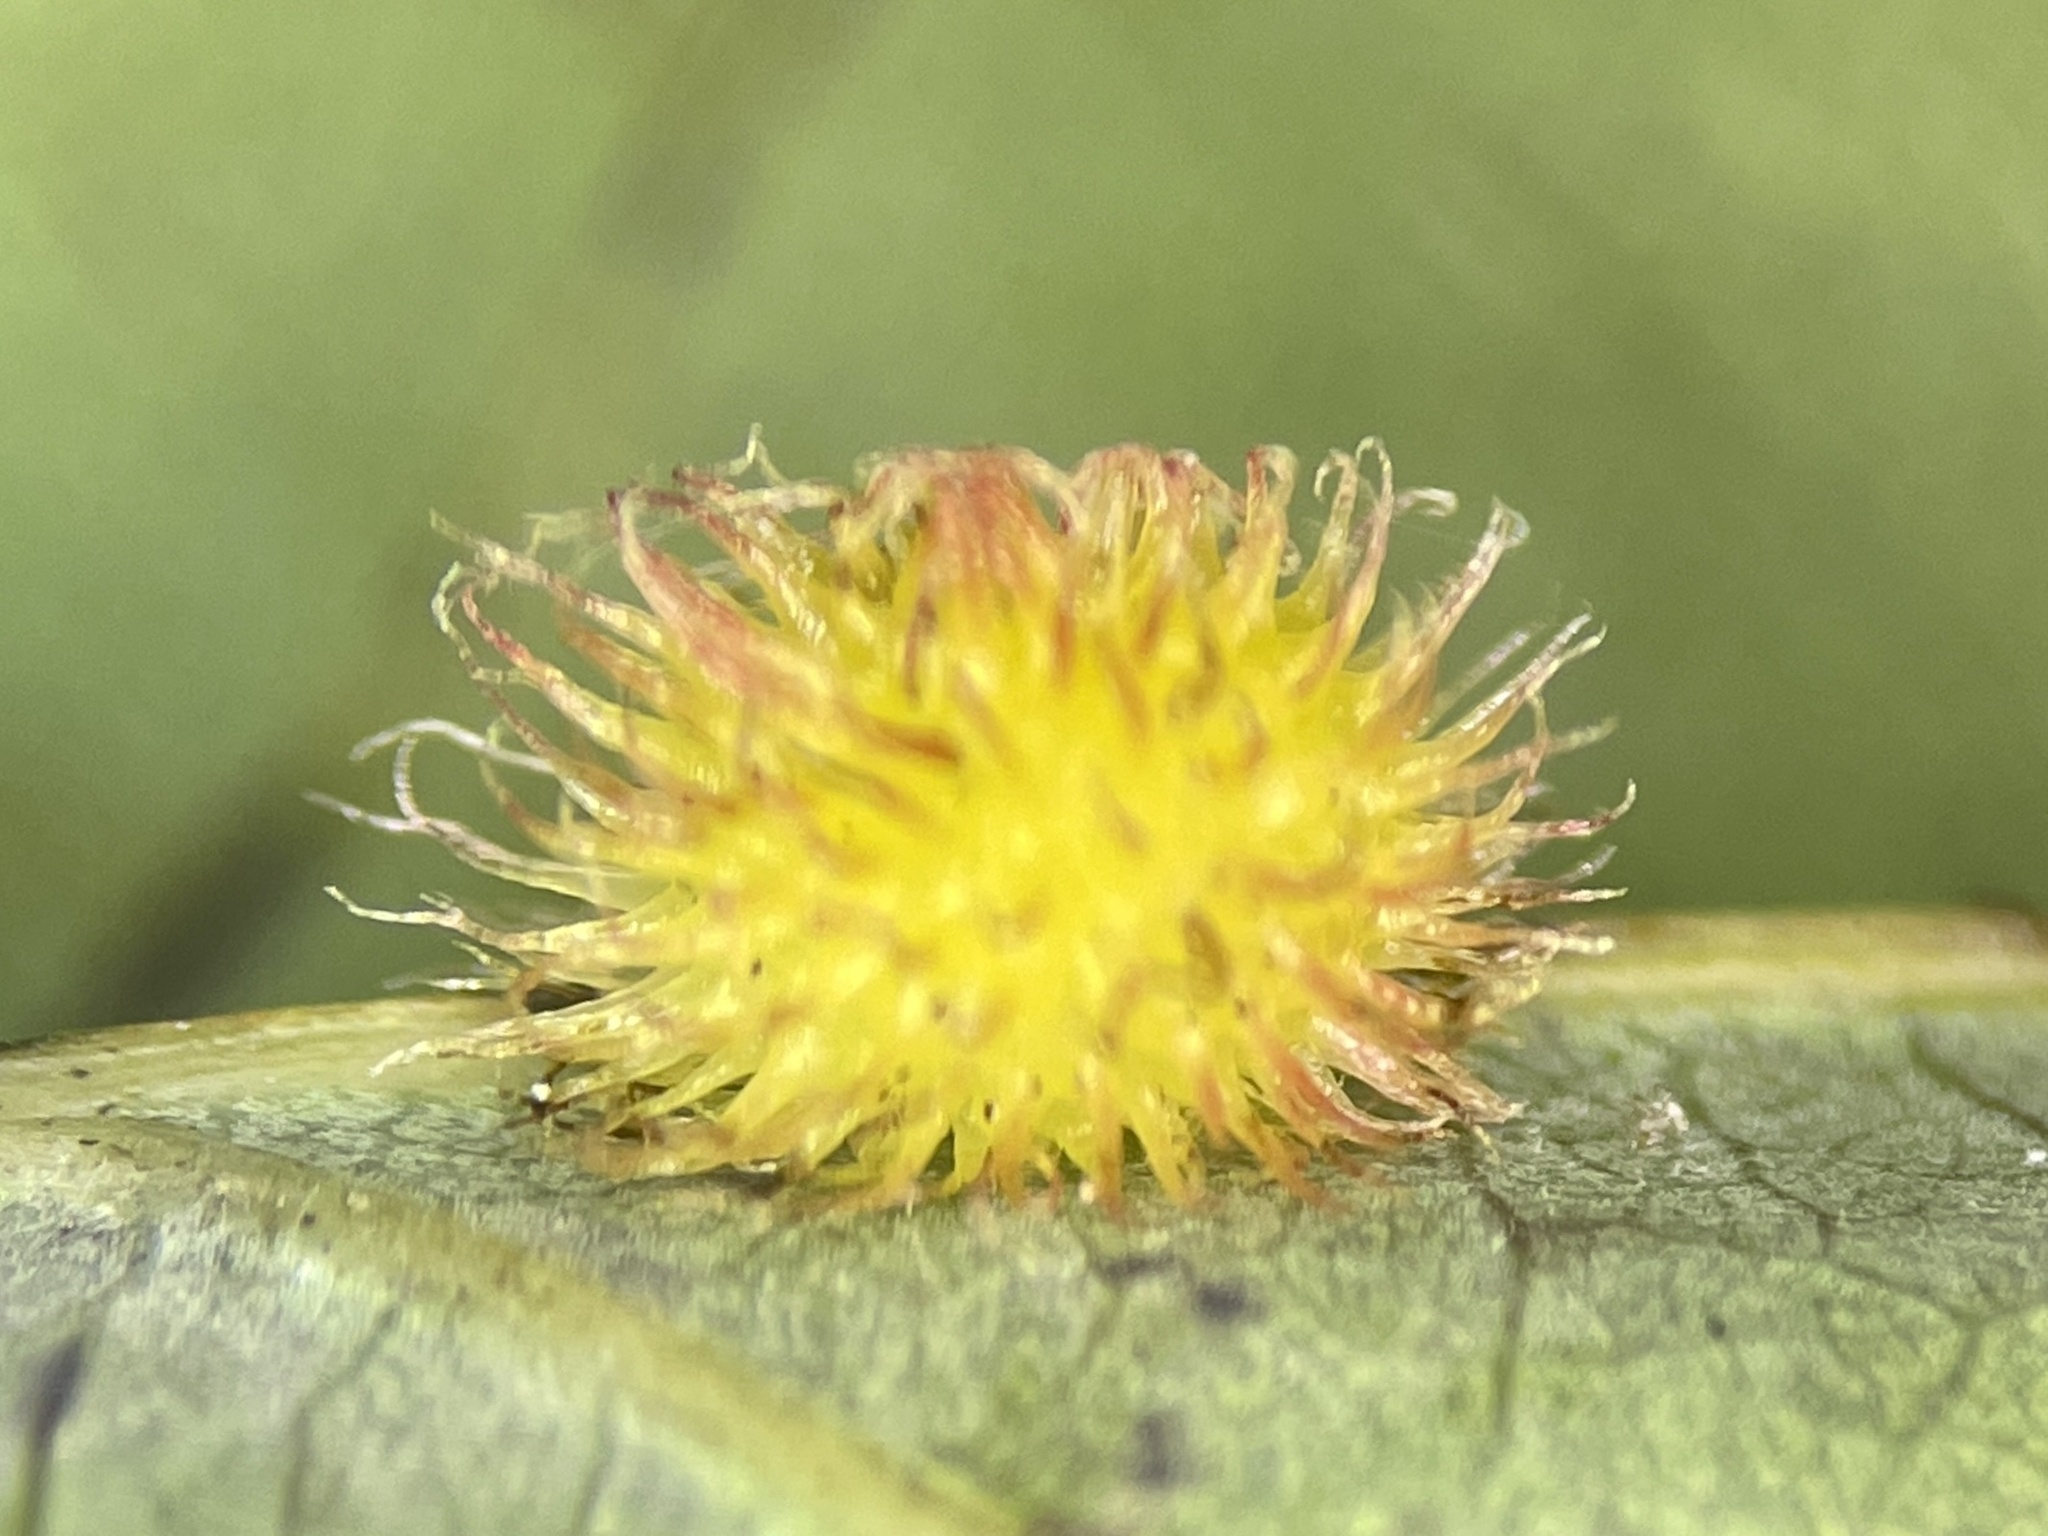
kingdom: Animalia
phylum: Arthropoda
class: Insecta
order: Hymenoptera
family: Cynipidae
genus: Acraspis
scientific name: Acraspis erinacei
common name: Hedgehog gall wasp
